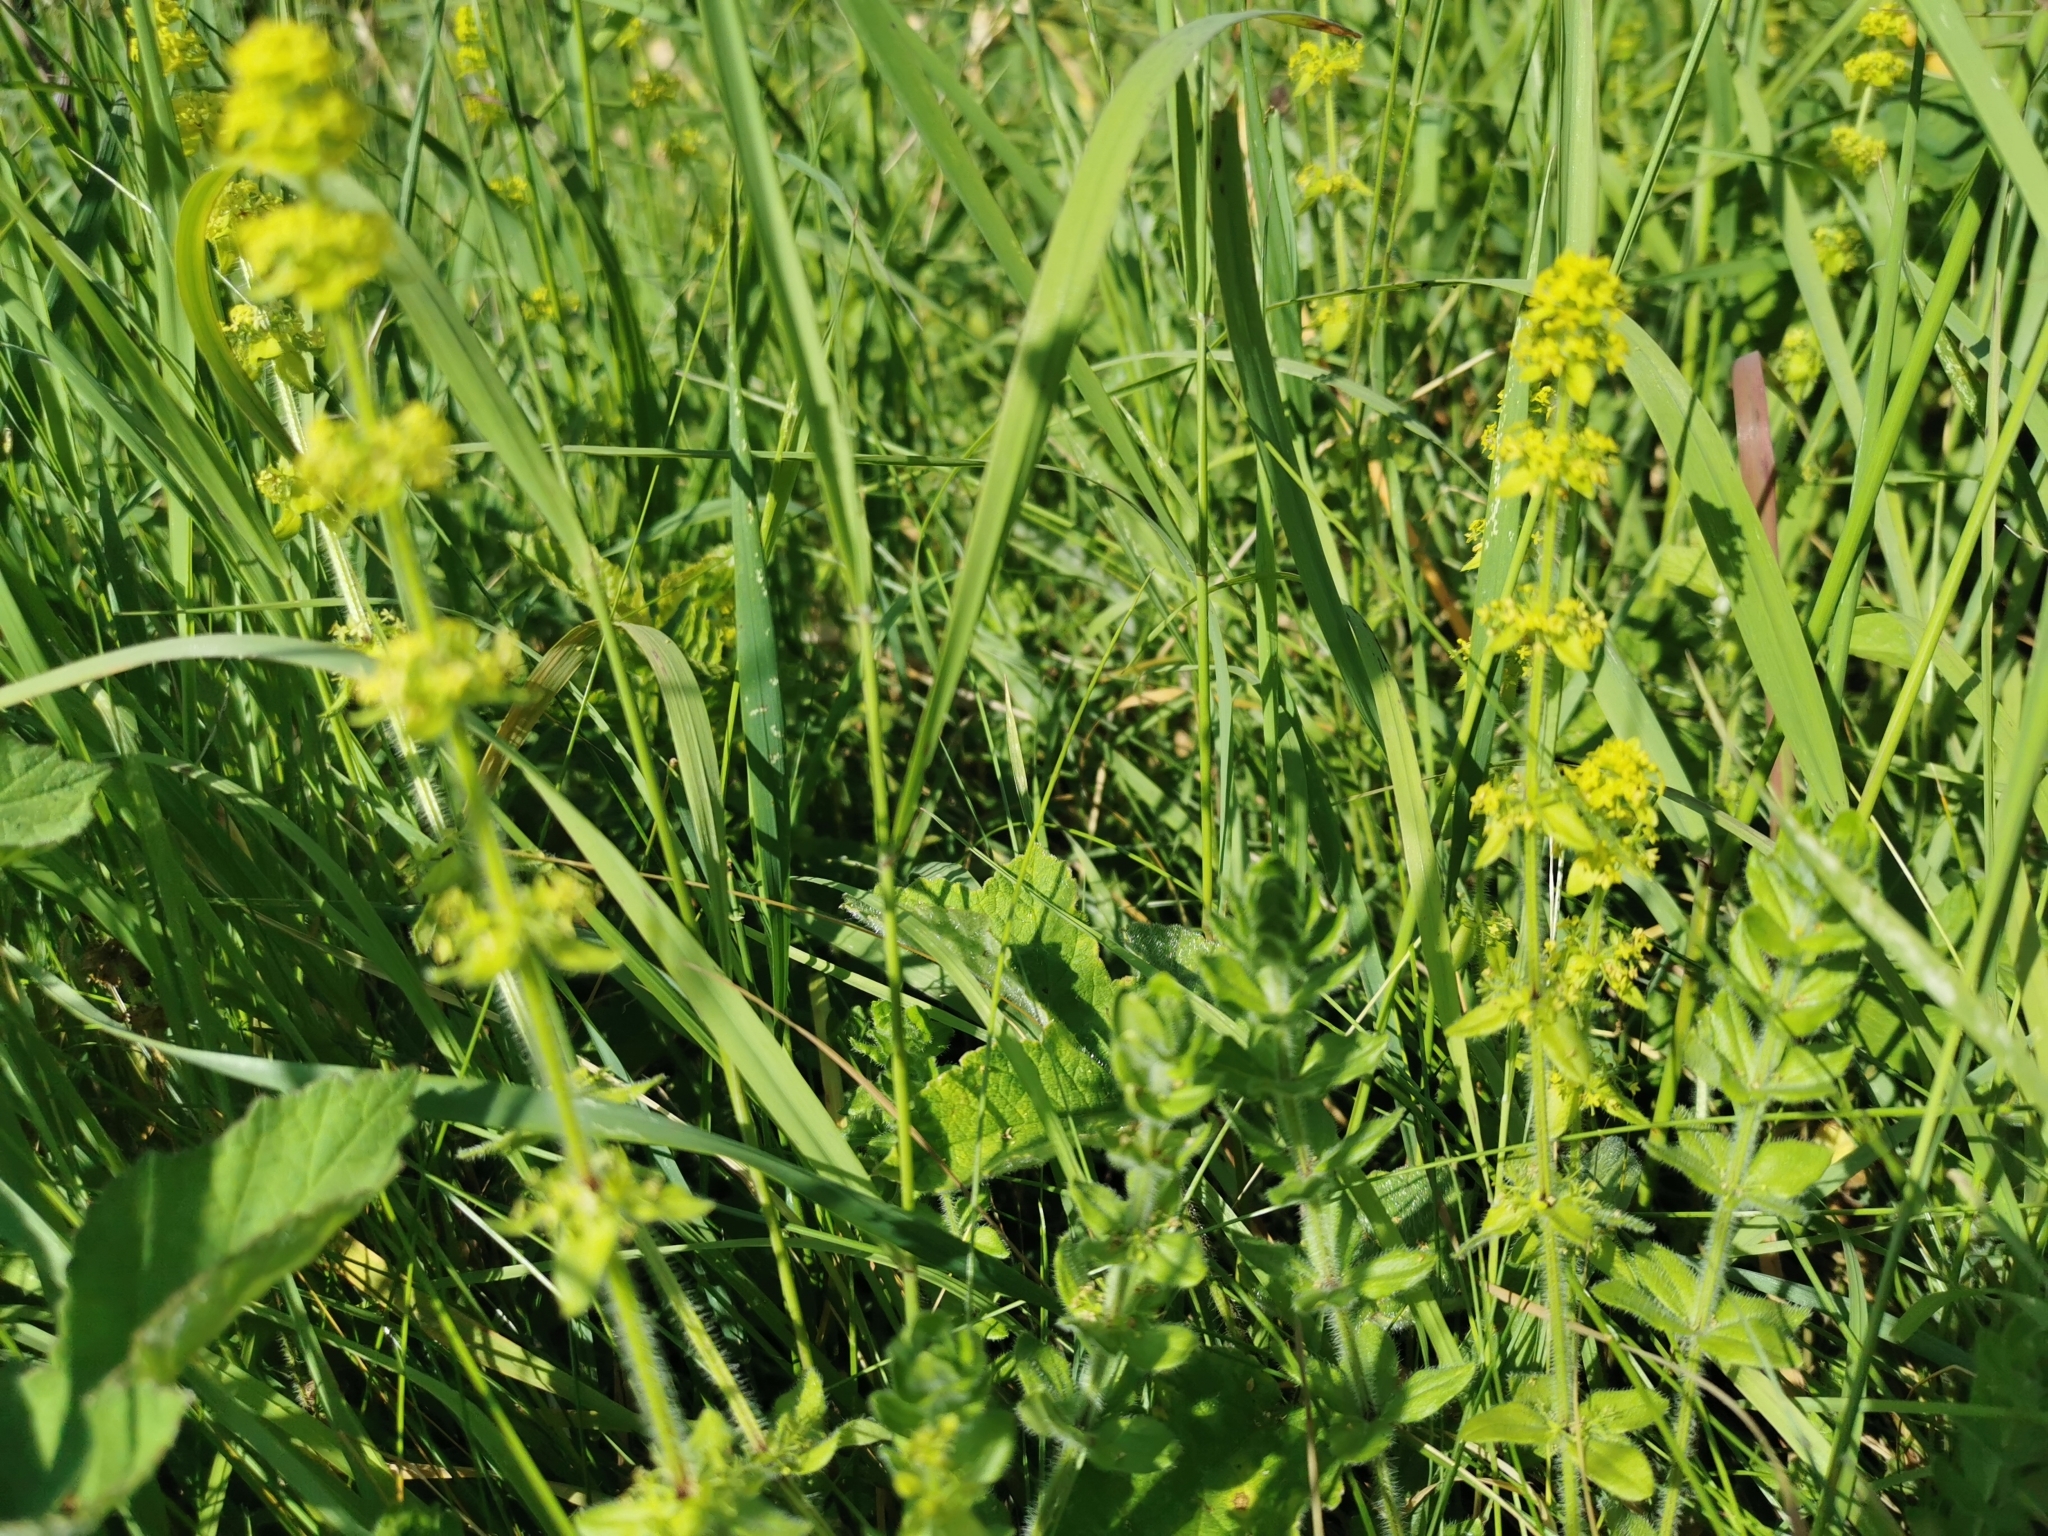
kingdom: Plantae
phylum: Tracheophyta
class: Magnoliopsida
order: Gentianales
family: Rubiaceae
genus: Cruciata
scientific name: Cruciata laevipes
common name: Crosswort
